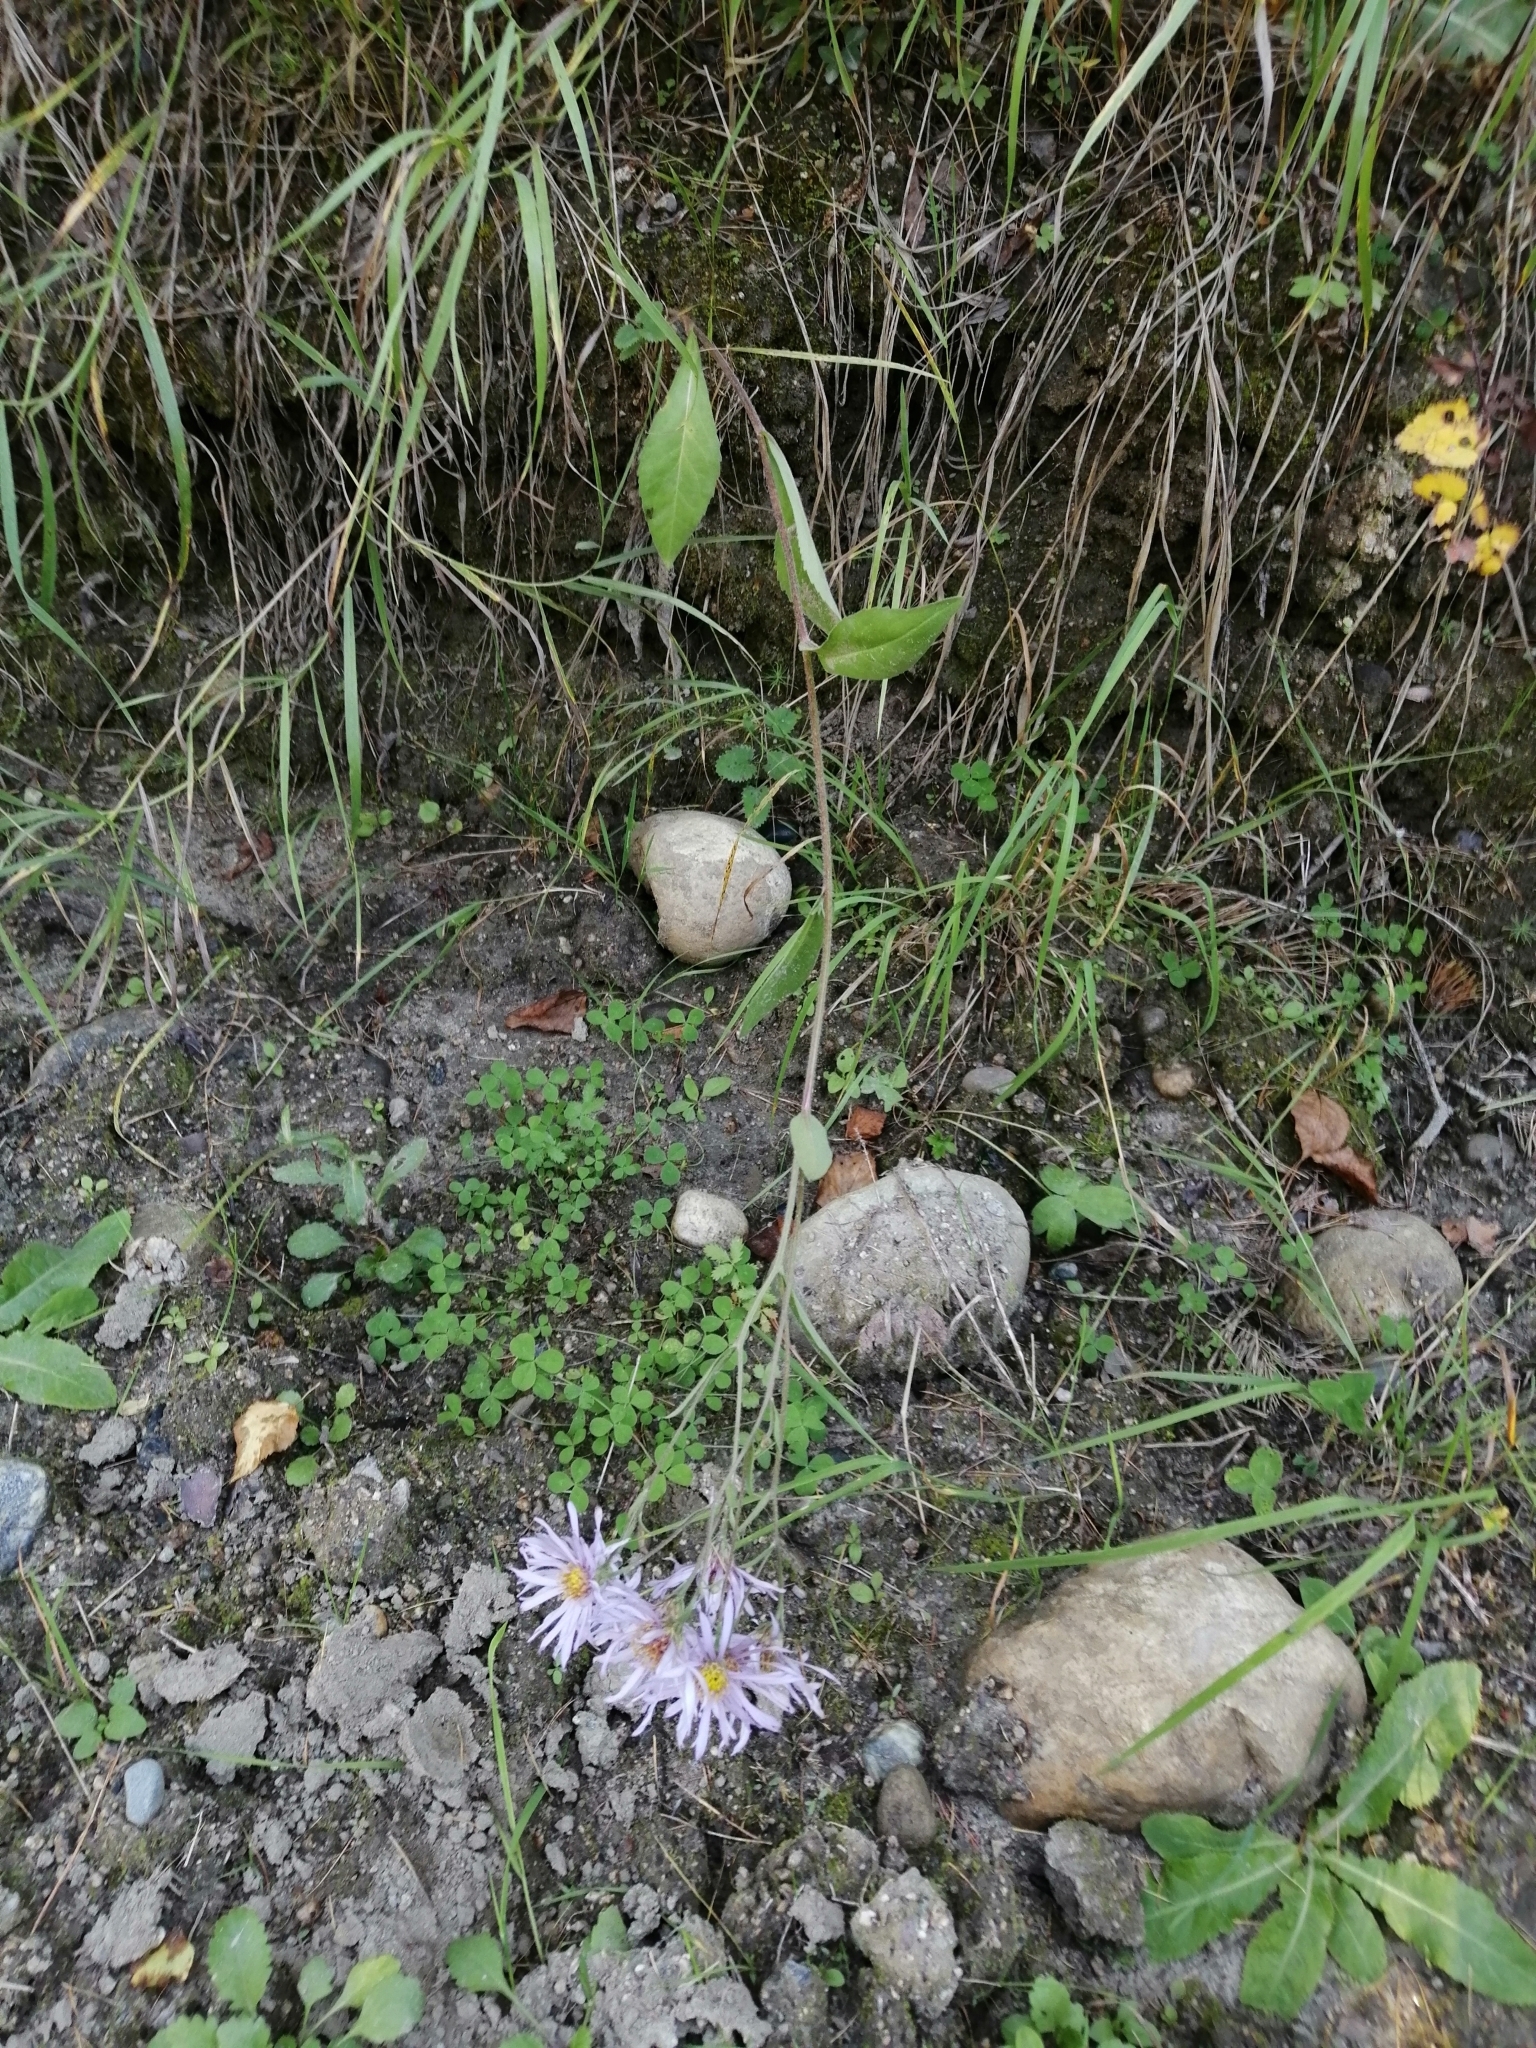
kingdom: Plantae
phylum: Tracheophyta
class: Magnoliopsida
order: Asterales
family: Asteraceae
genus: Aster
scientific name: Aster tataricus
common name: Tatarian aster
